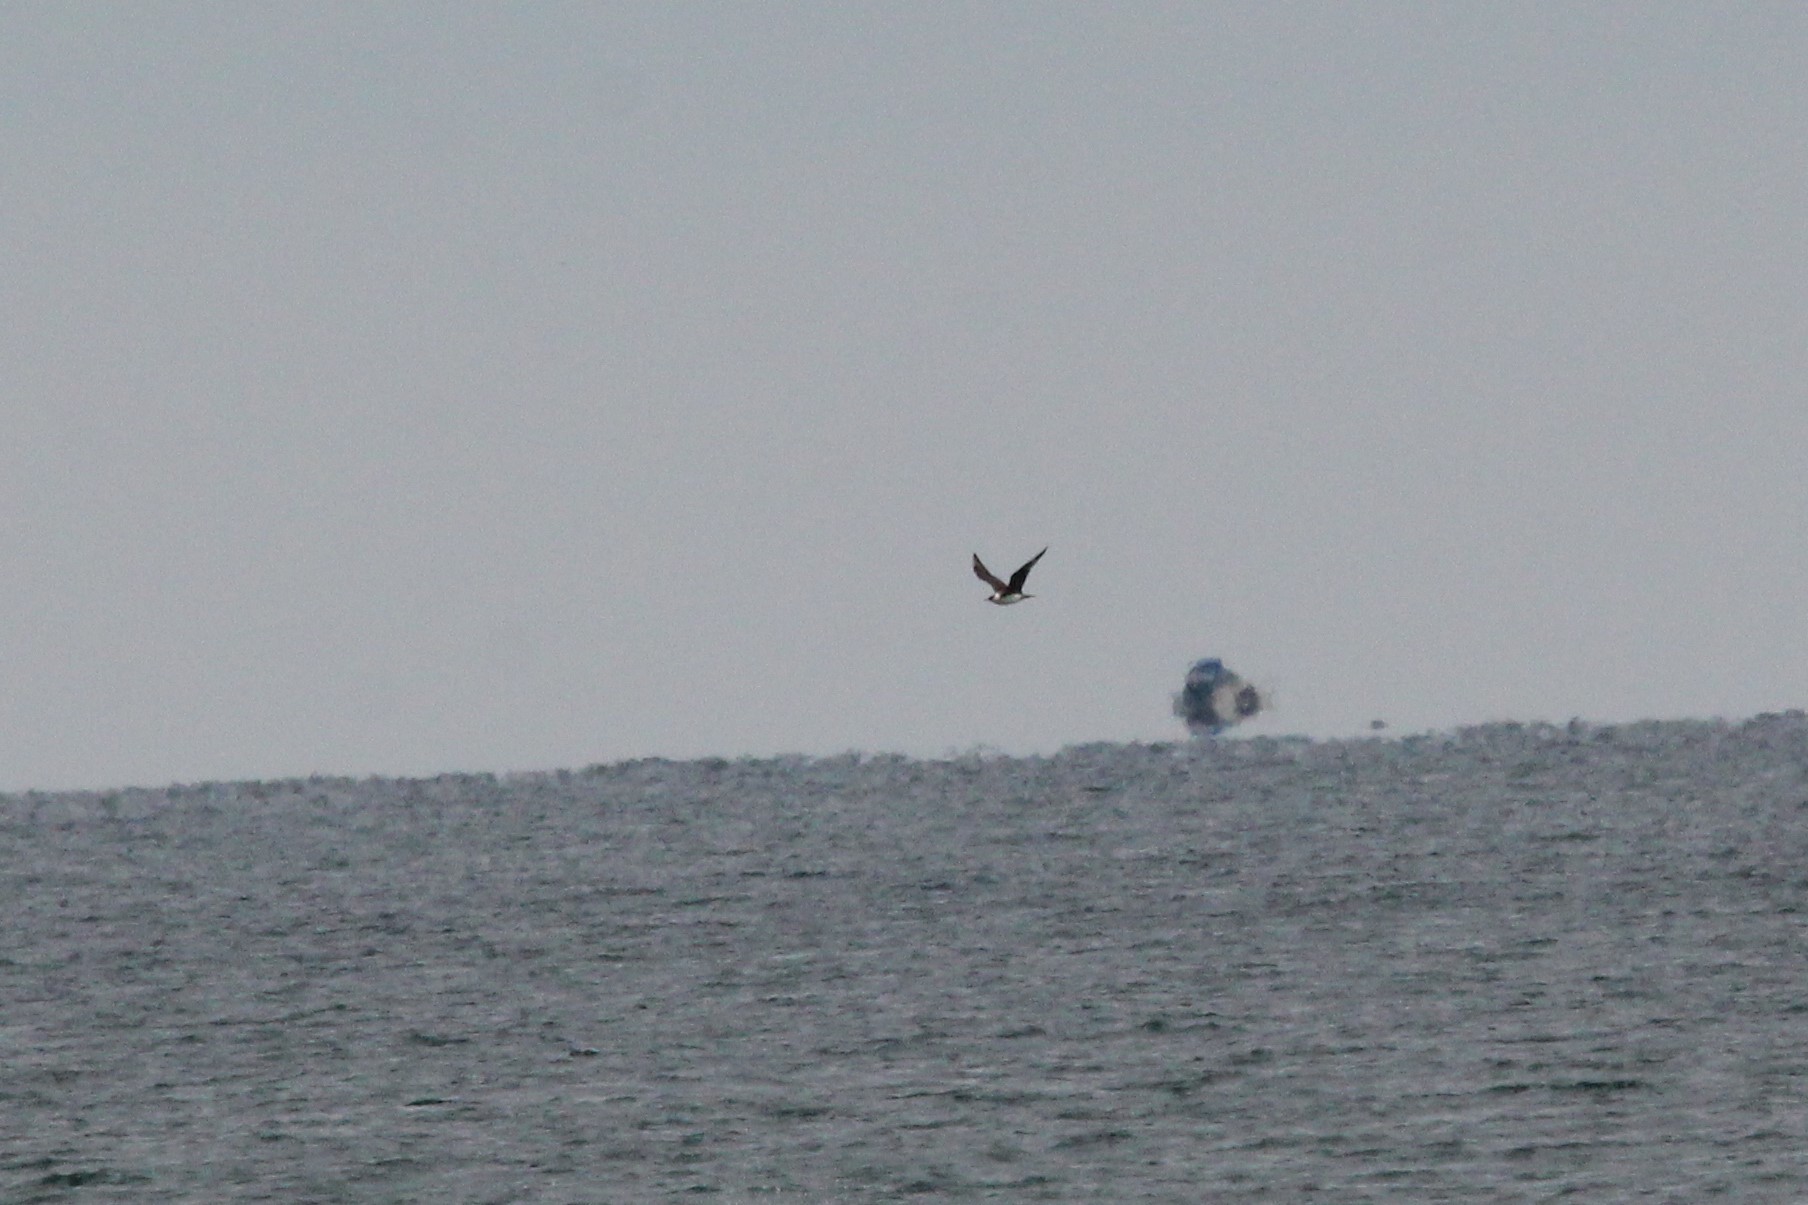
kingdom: Animalia
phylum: Chordata
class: Aves
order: Charadriiformes
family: Stercorariidae
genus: Stercorarius
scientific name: Stercorarius parasiticus
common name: Parasitic jaeger
